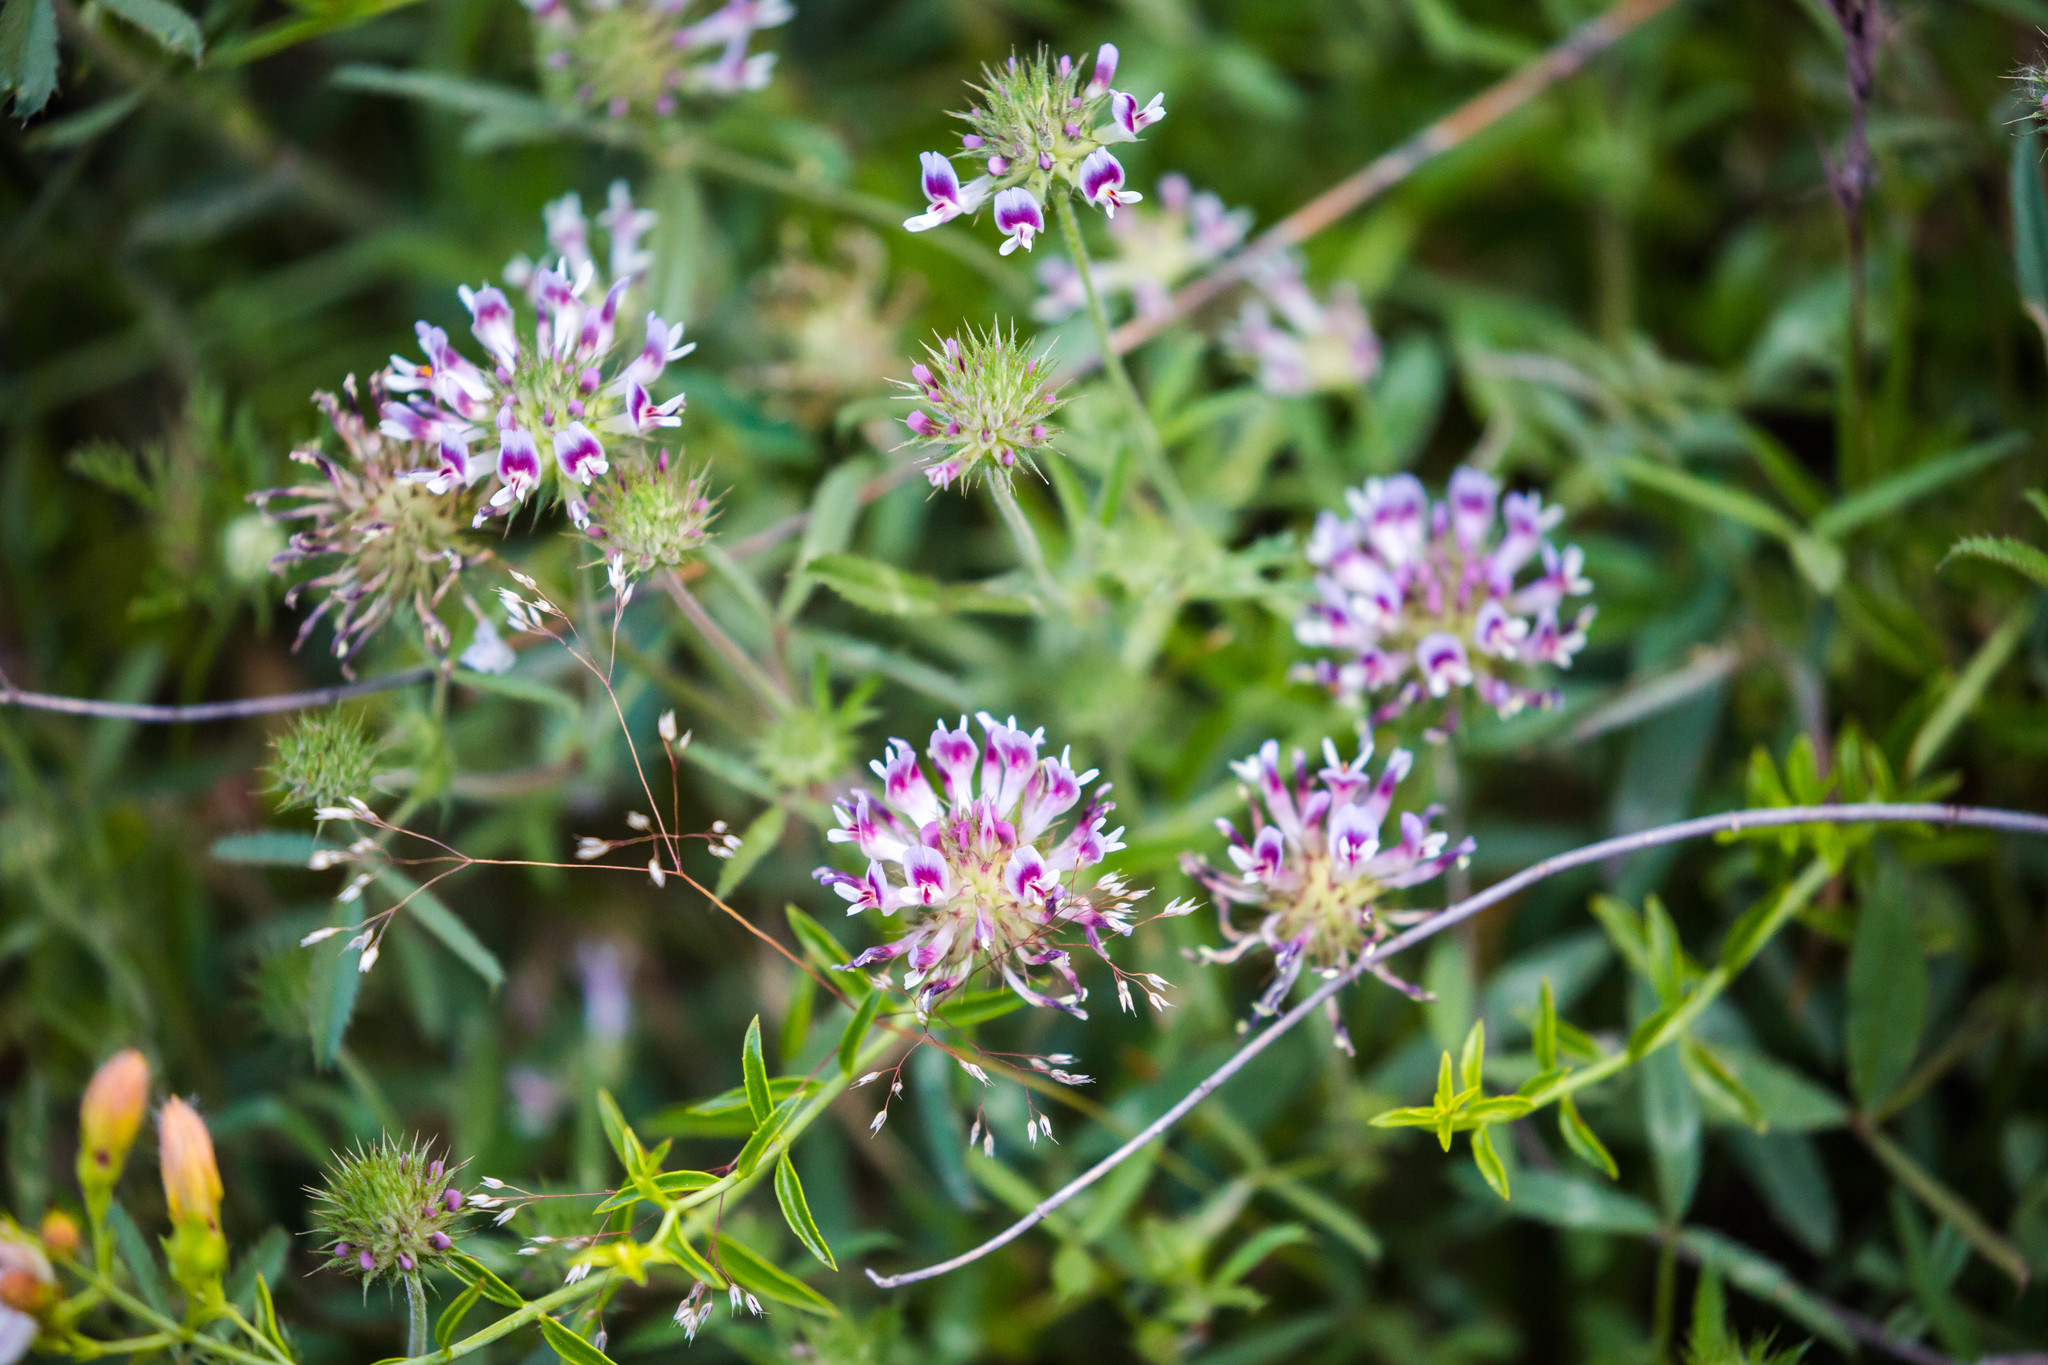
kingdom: Plantae
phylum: Tracheophyta
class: Magnoliopsida
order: Fabales
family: Fabaceae
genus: Trifolium
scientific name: Trifolium obtusiflorum
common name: Clammy clover
